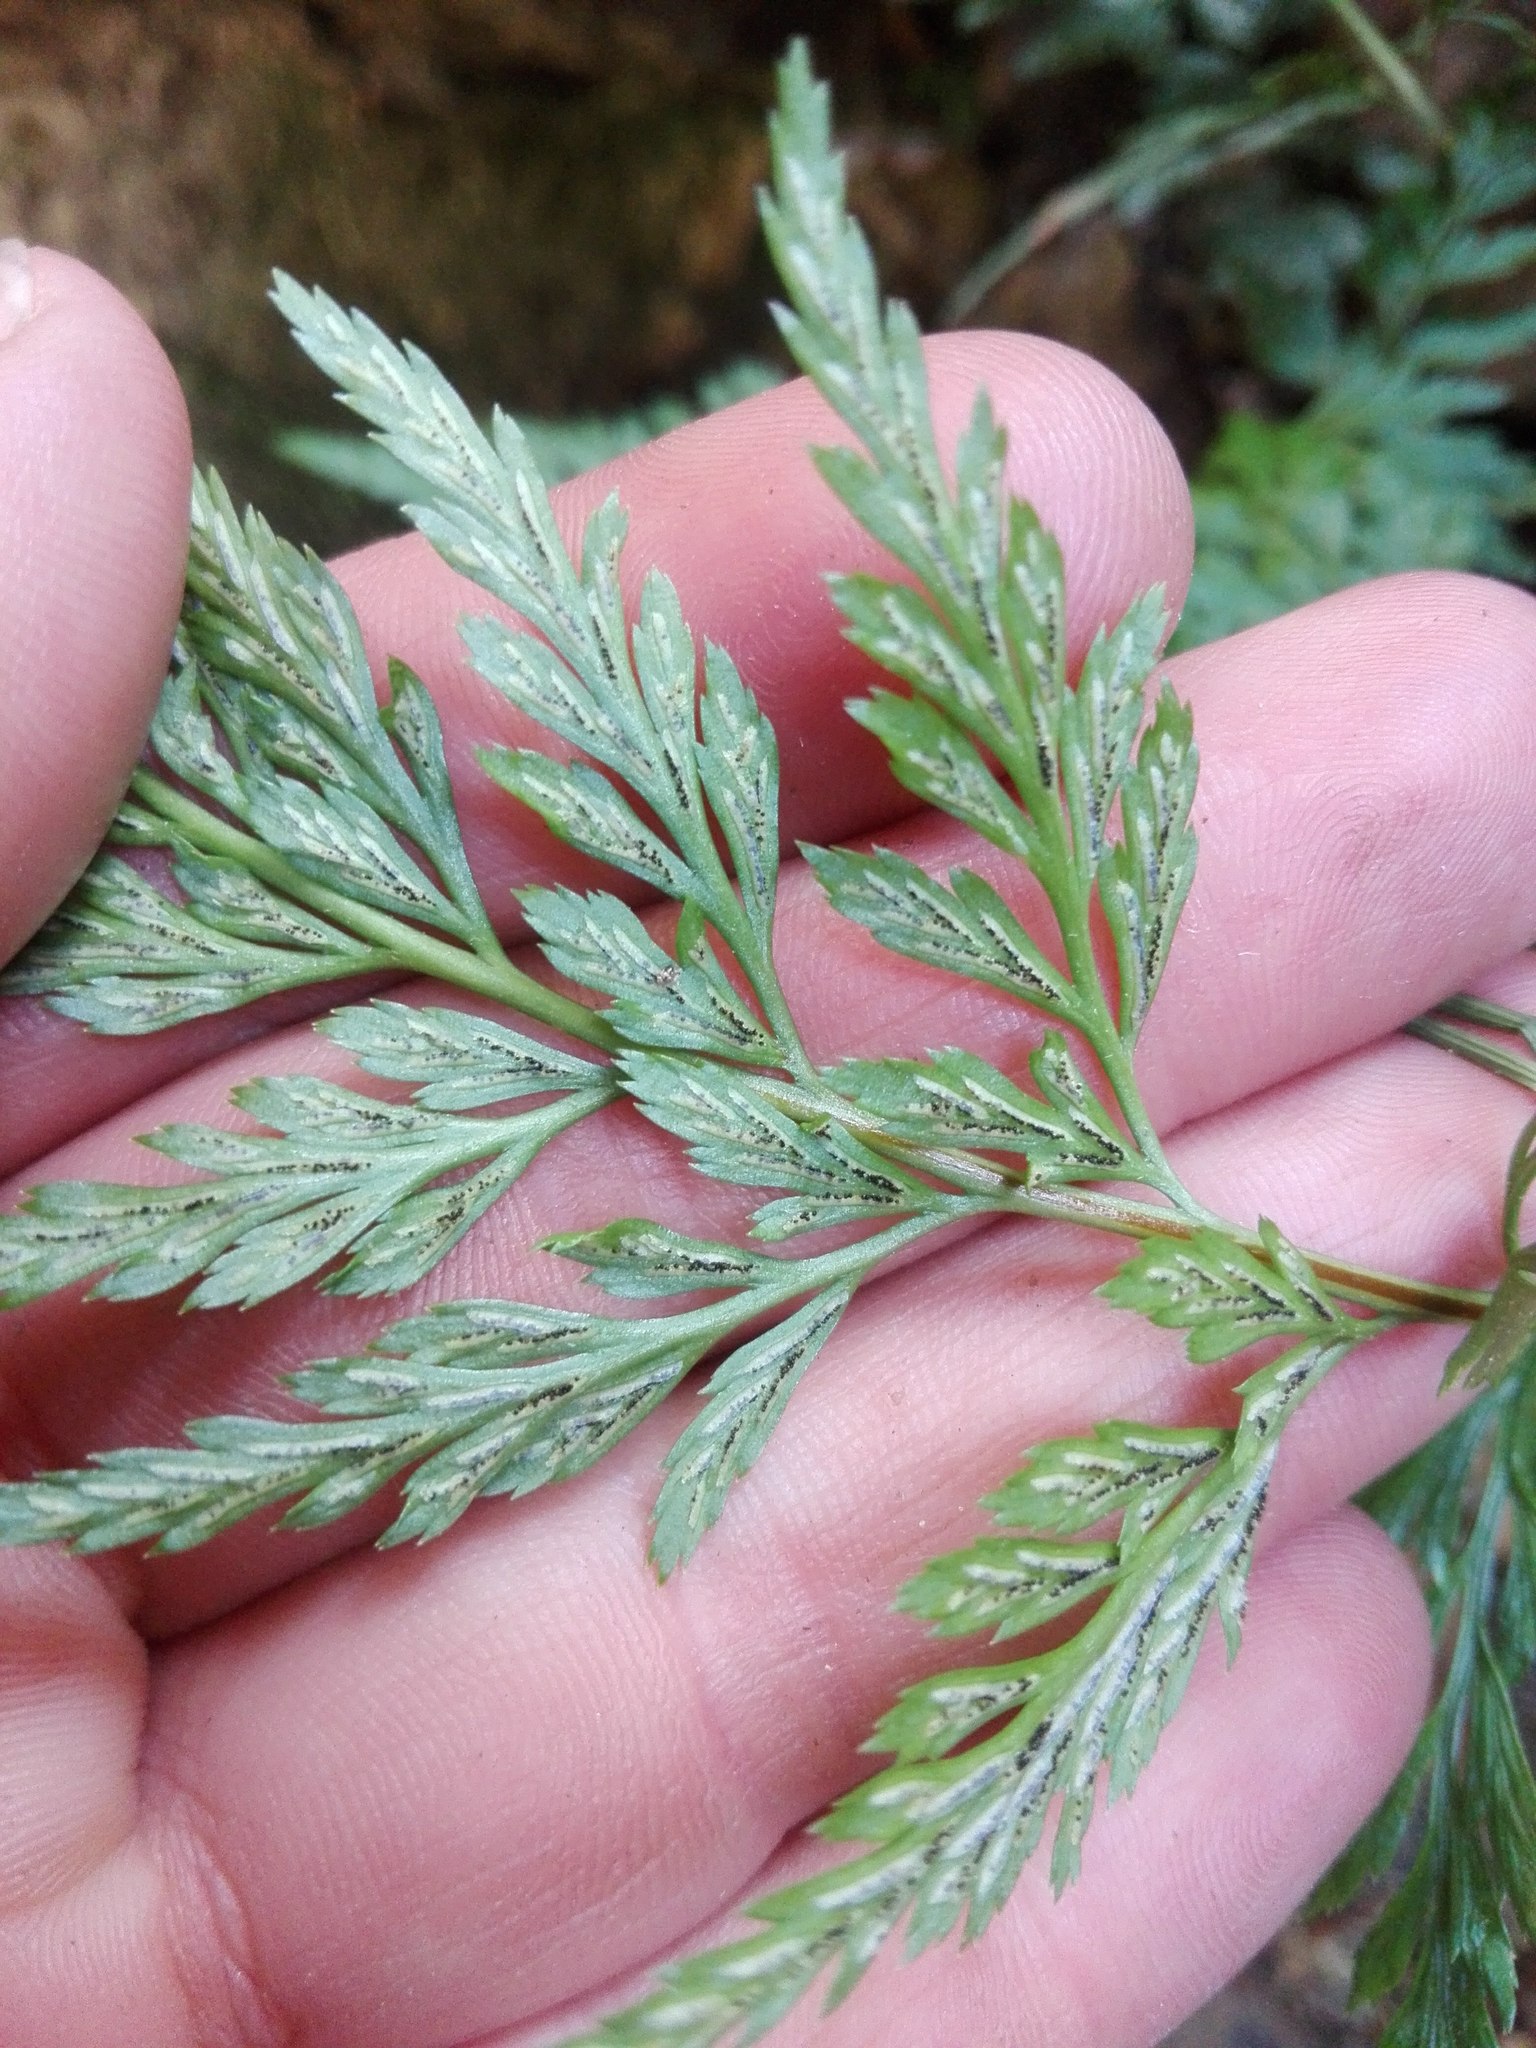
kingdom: Plantae
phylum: Tracheophyta
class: Polypodiopsida
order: Polypodiales
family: Aspleniaceae
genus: Asplenium
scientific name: Asplenium onopteris
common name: Irish spleenwort
